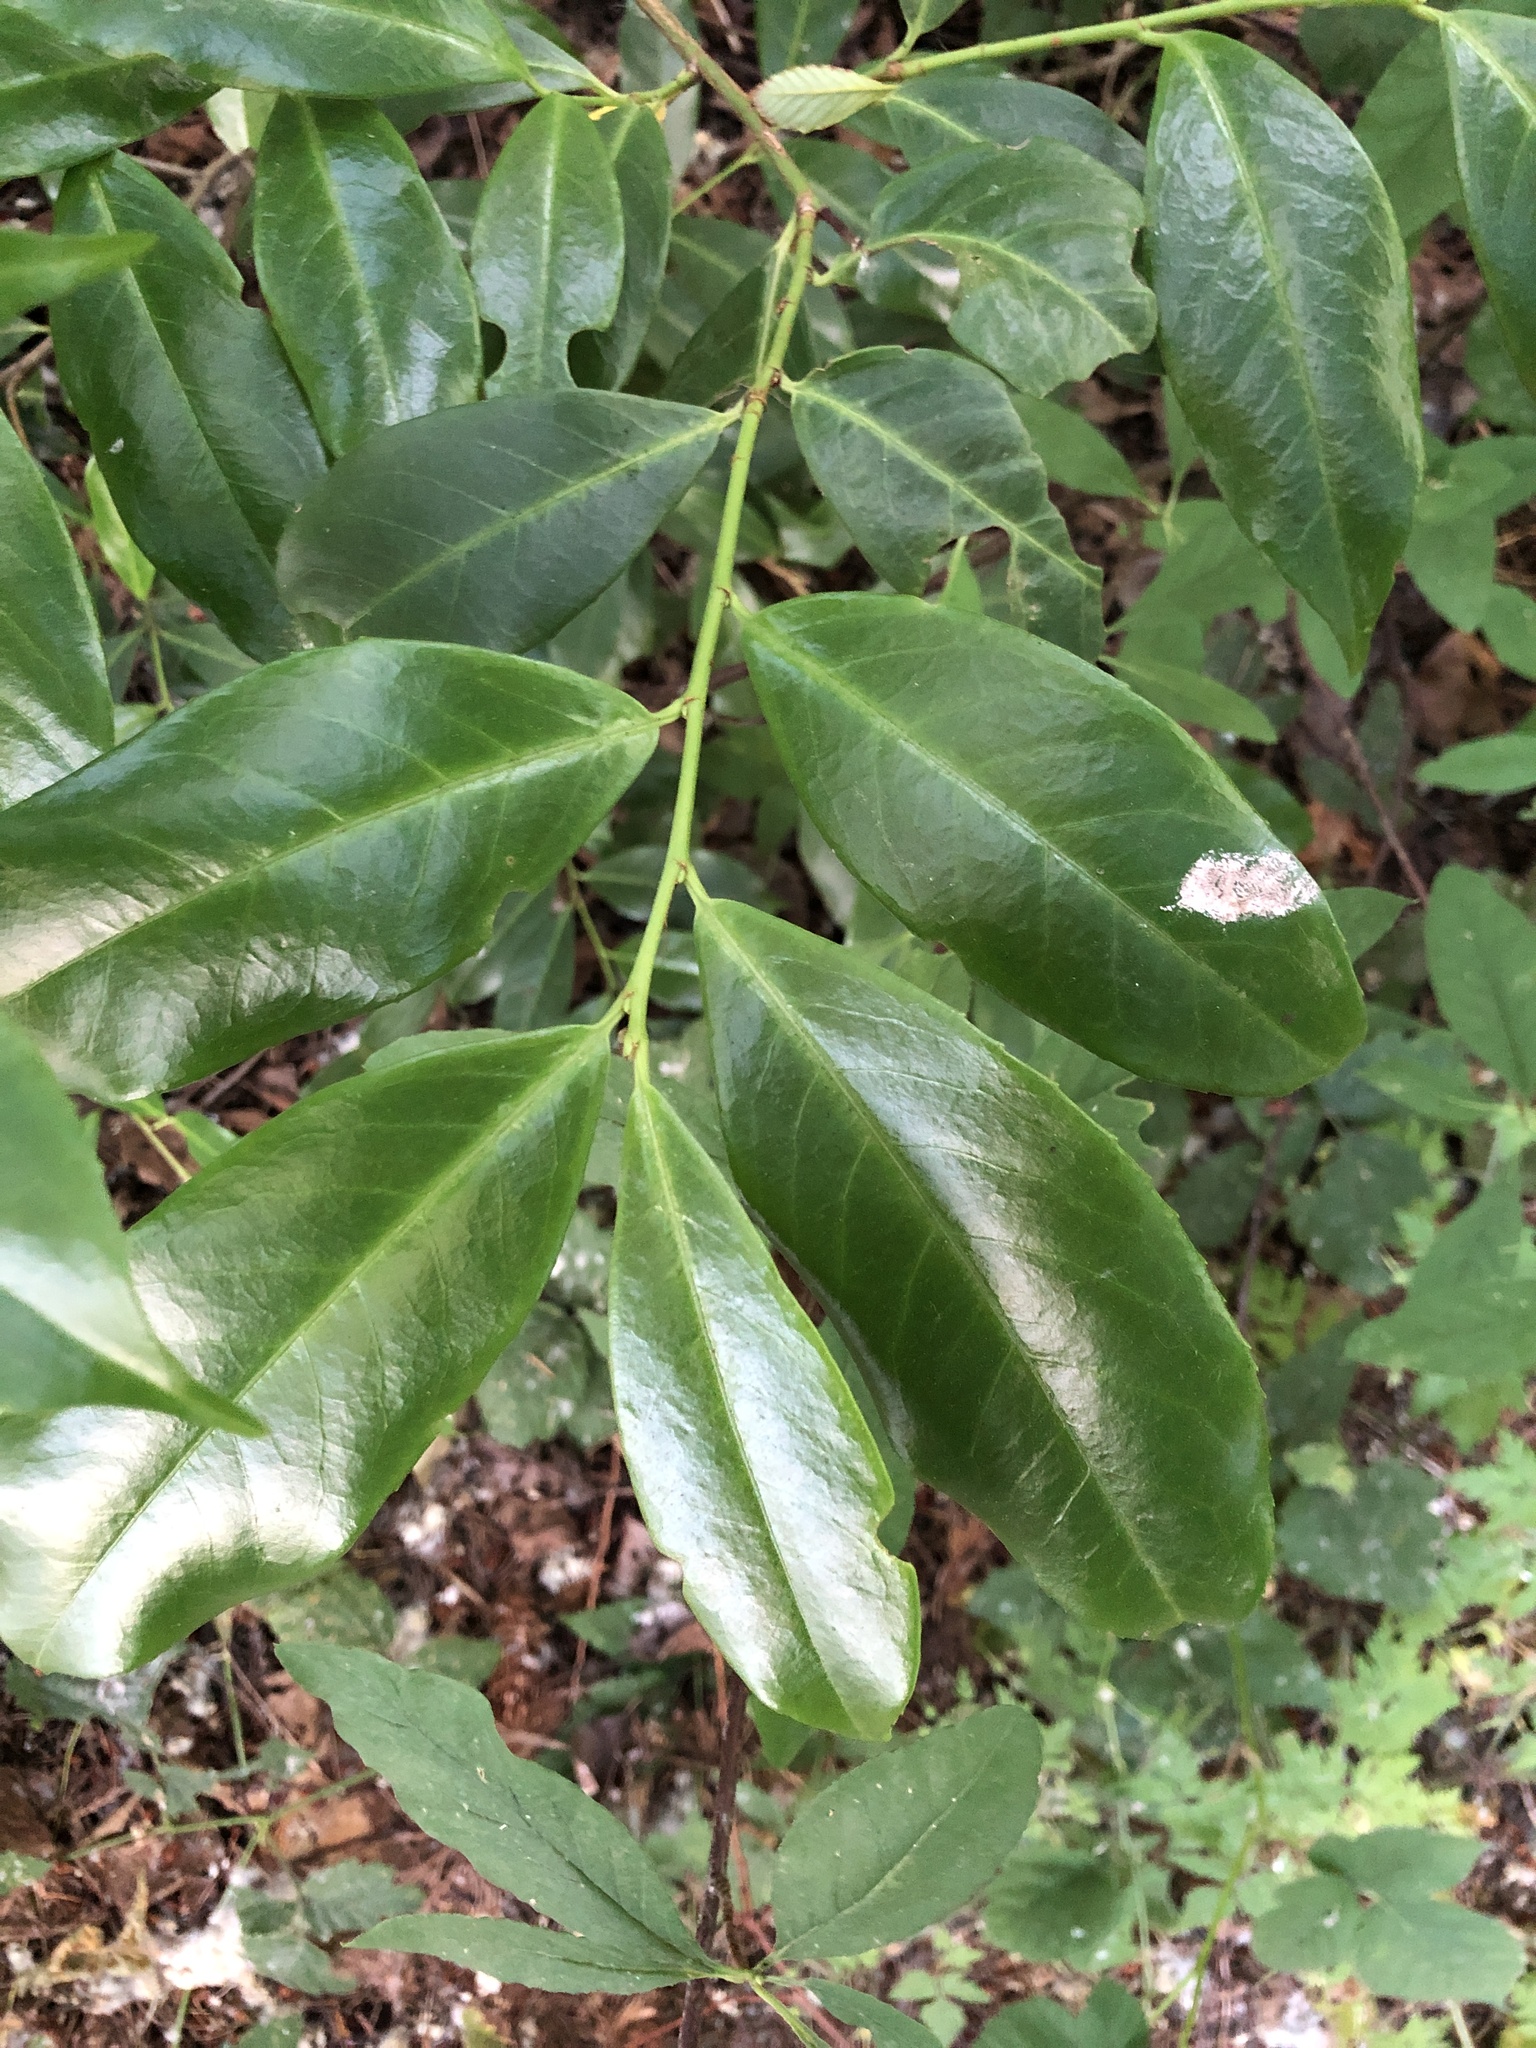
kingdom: Plantae
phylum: Tracheophyta
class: Magnoliopsida
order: Rosales
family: Rosaceae
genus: Prunus
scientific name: Prunus laurocerasus
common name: Cherry laurel
